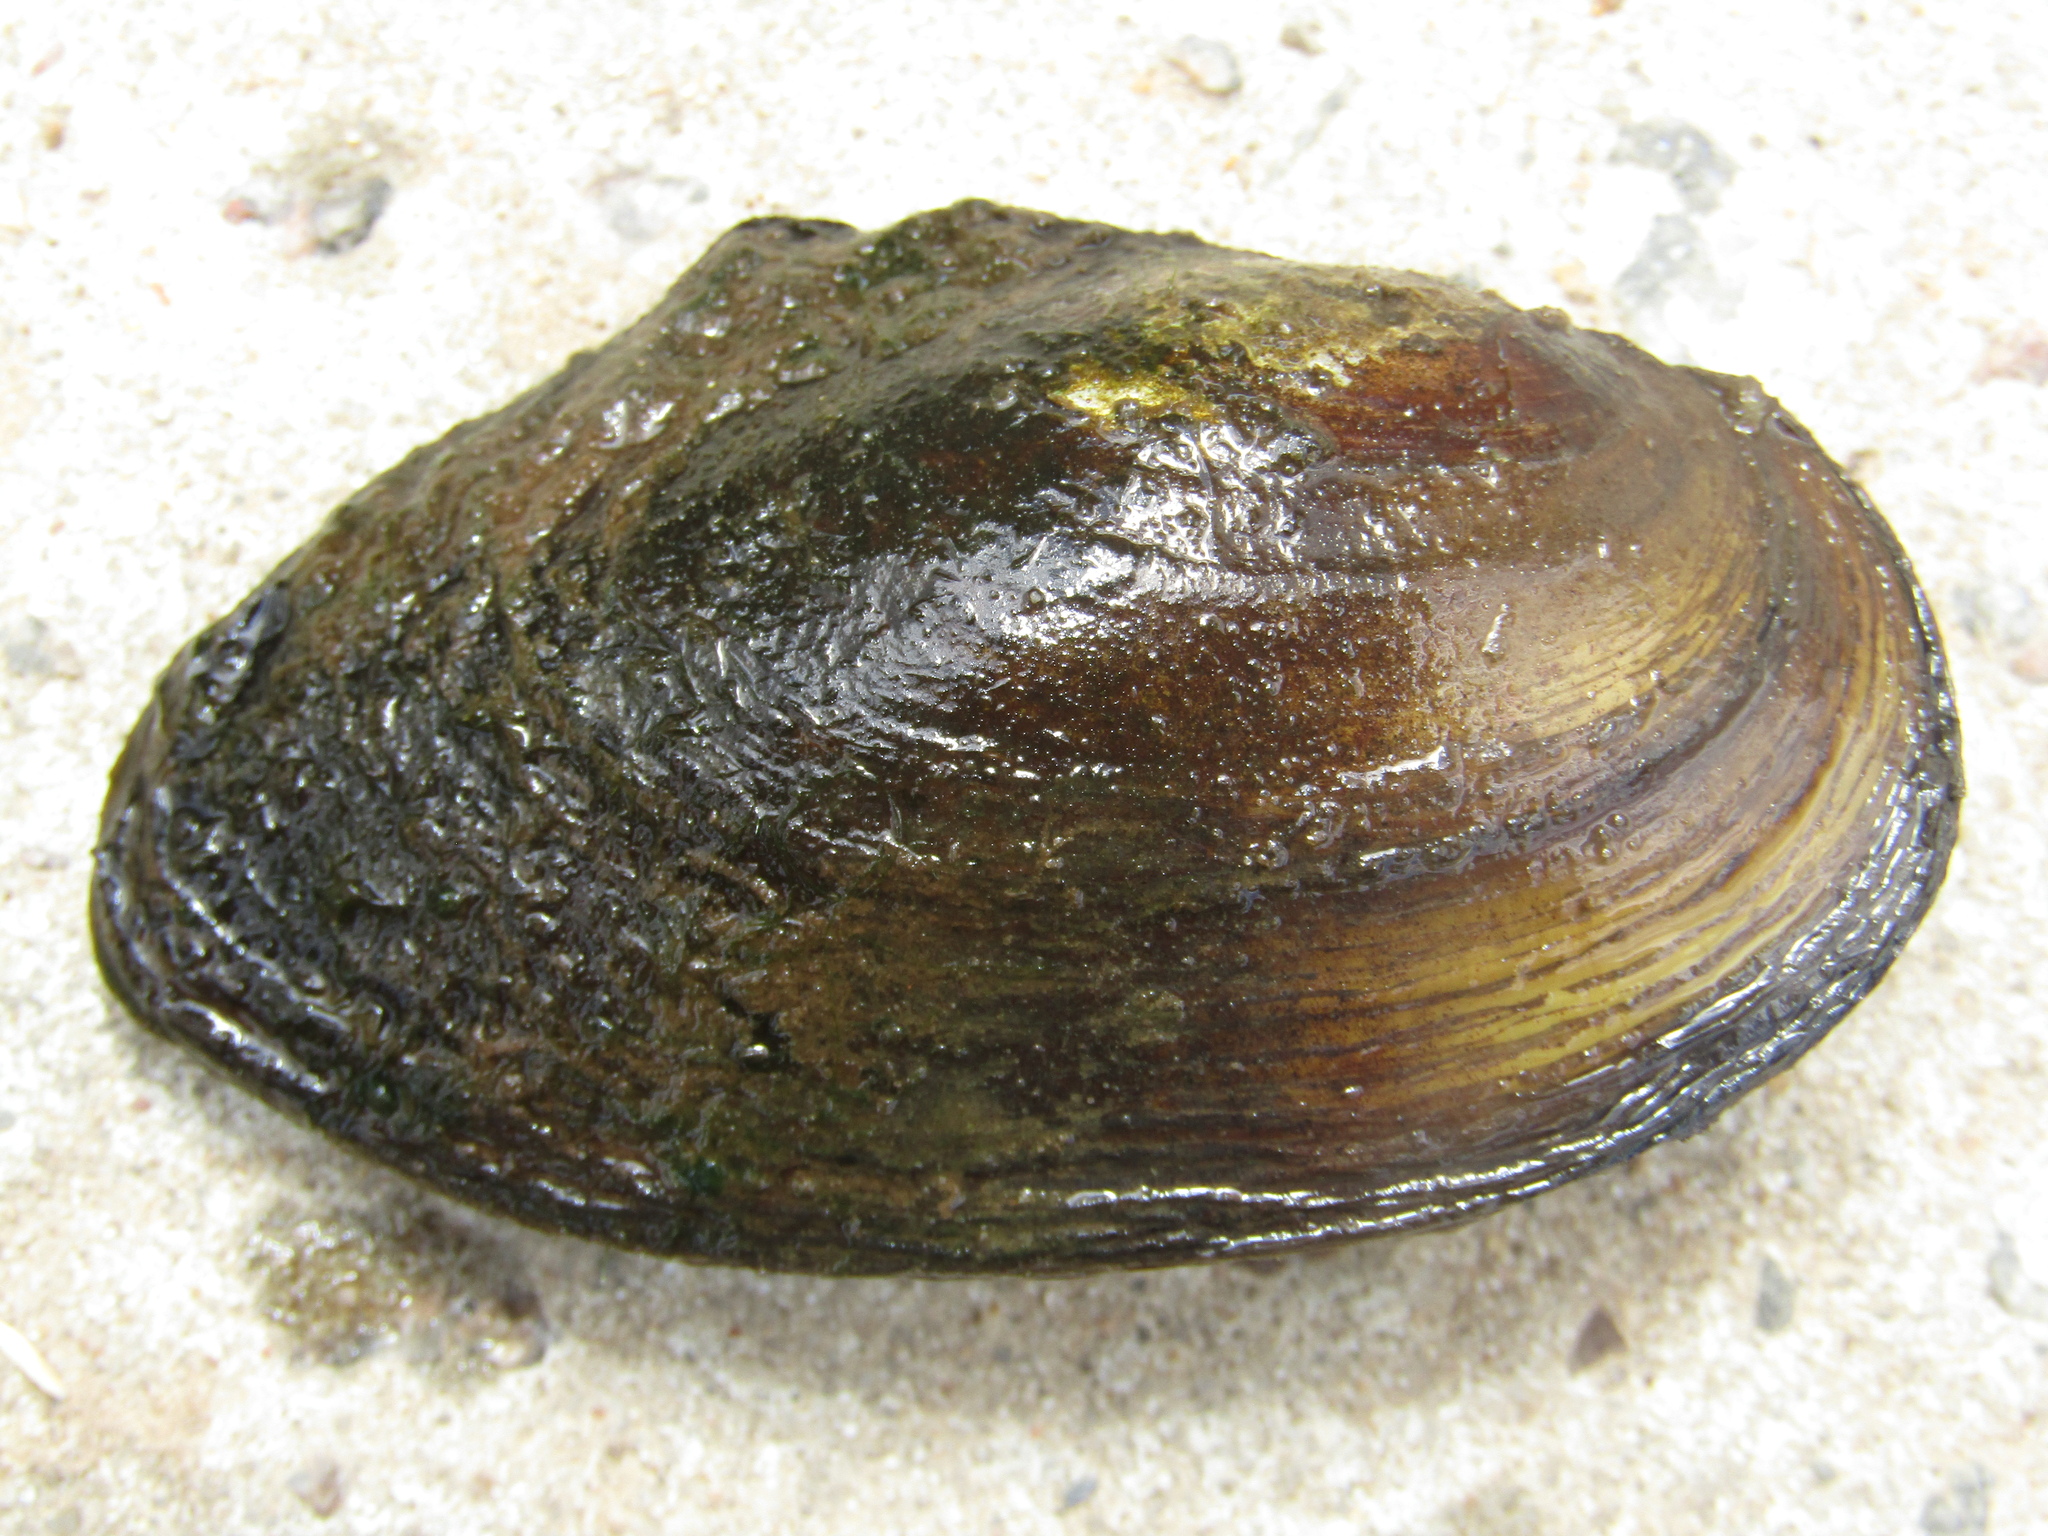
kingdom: Animalia
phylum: Mollusca
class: Bivalvia
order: Unionida
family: Unionidae
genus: Anodonta
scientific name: Anodonta anatina
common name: Duck mussel
